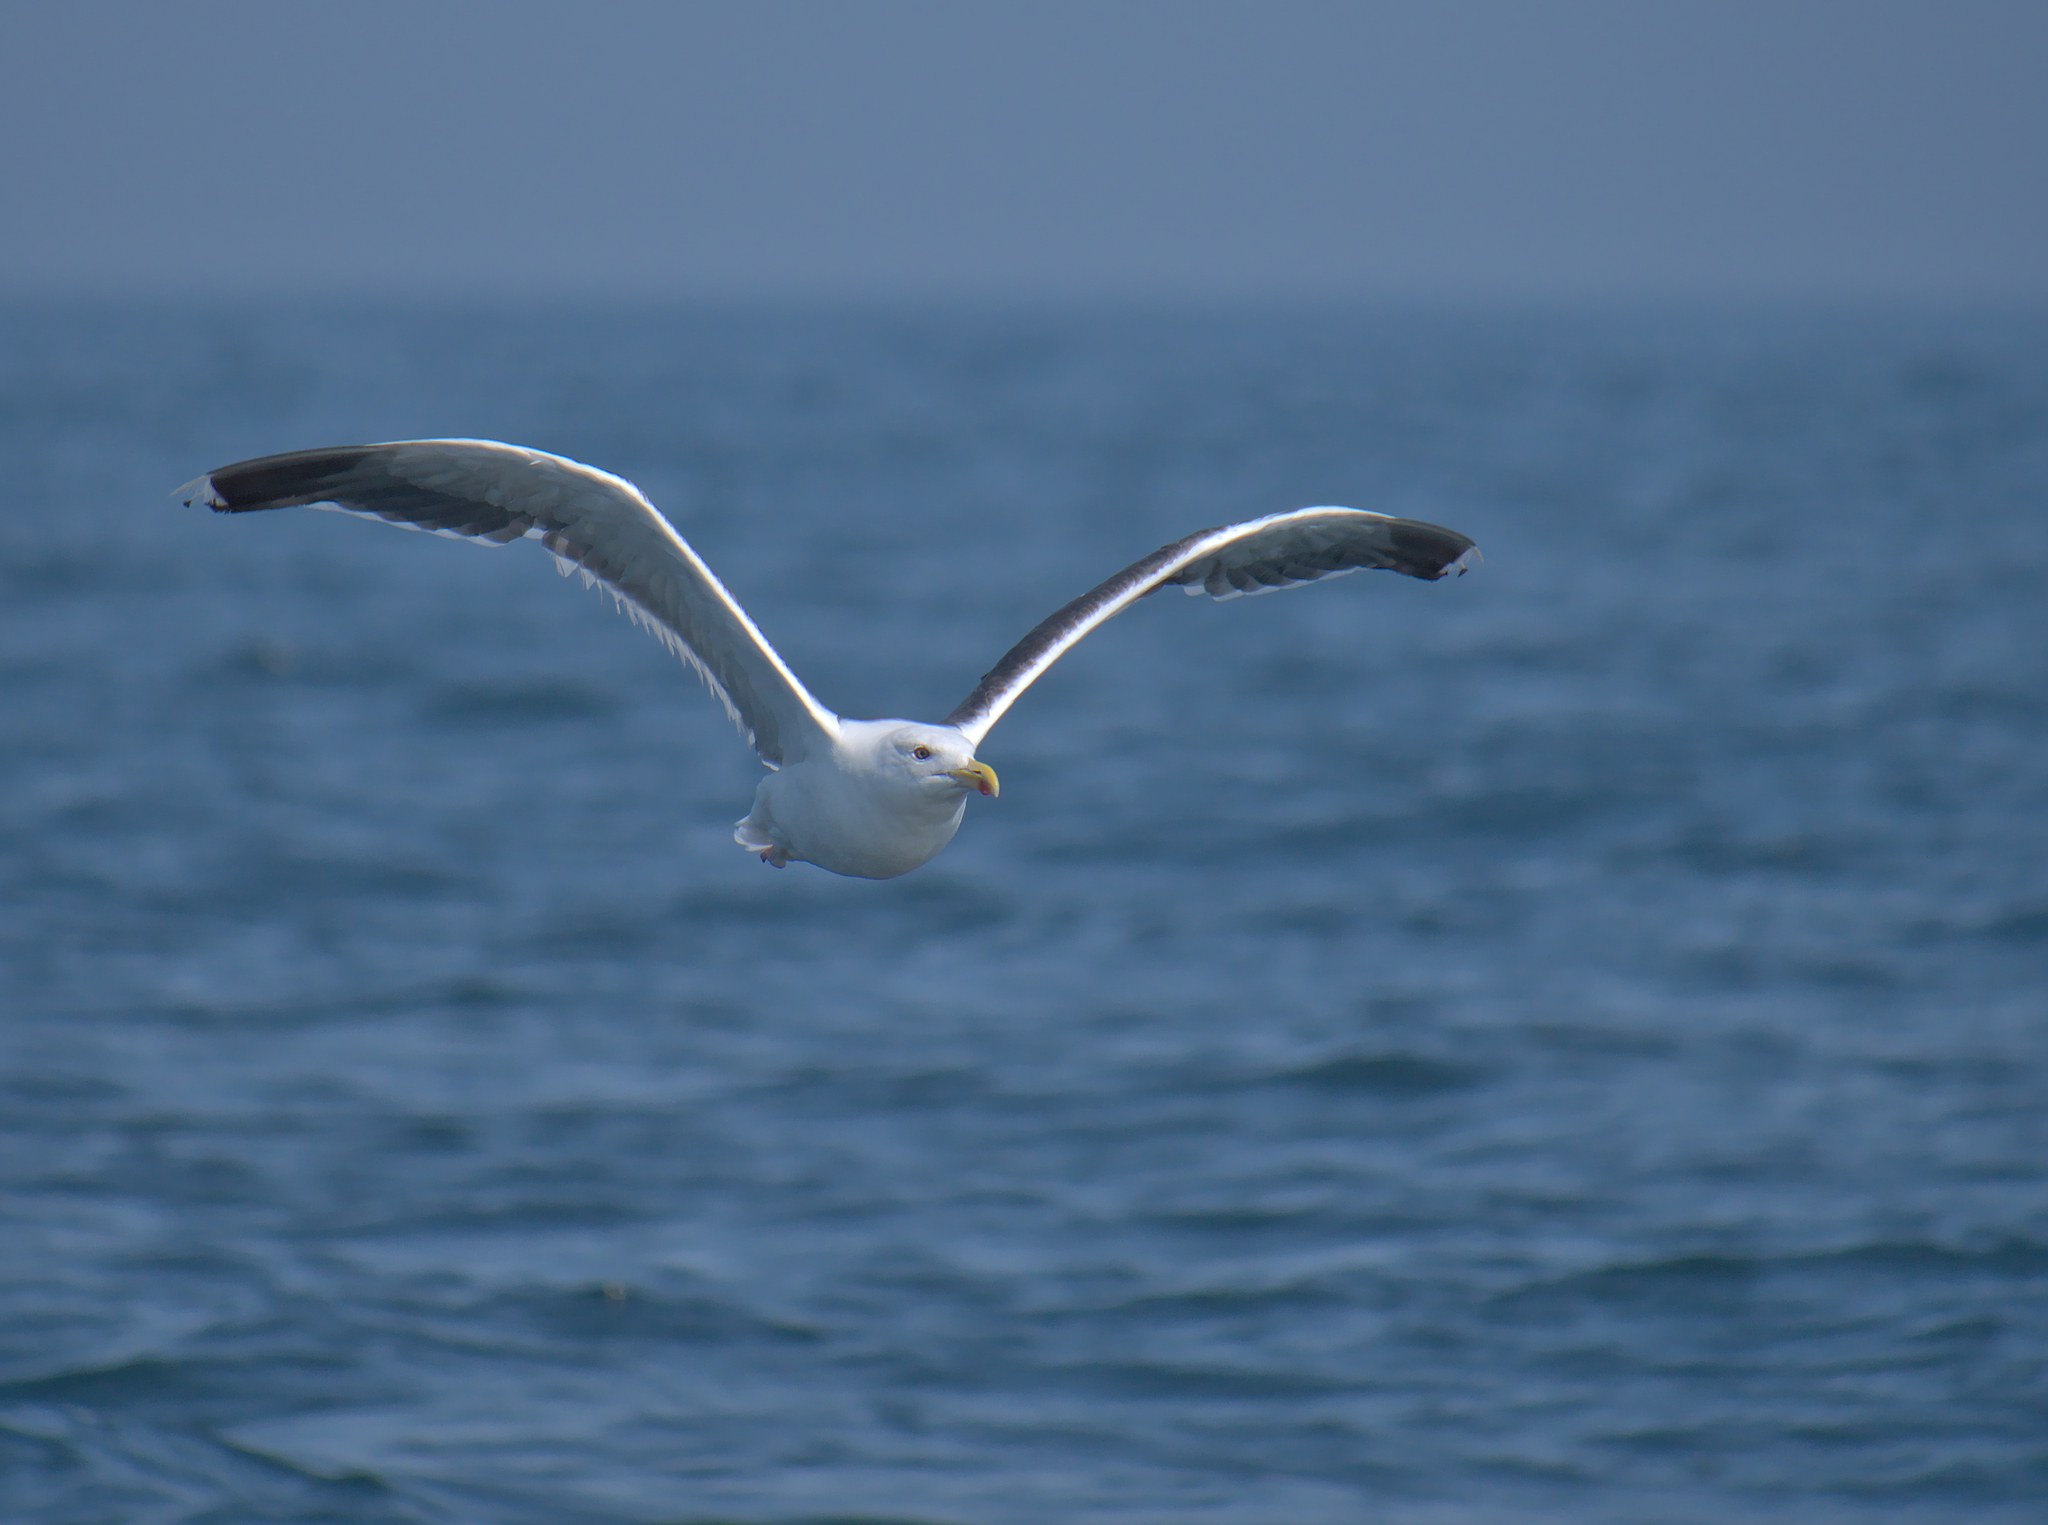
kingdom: Animalia
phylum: Chordata
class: Aves
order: Charadriiformes
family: Laridae
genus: Larus
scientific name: Larus fuscus
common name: Lesser black-backed gull
